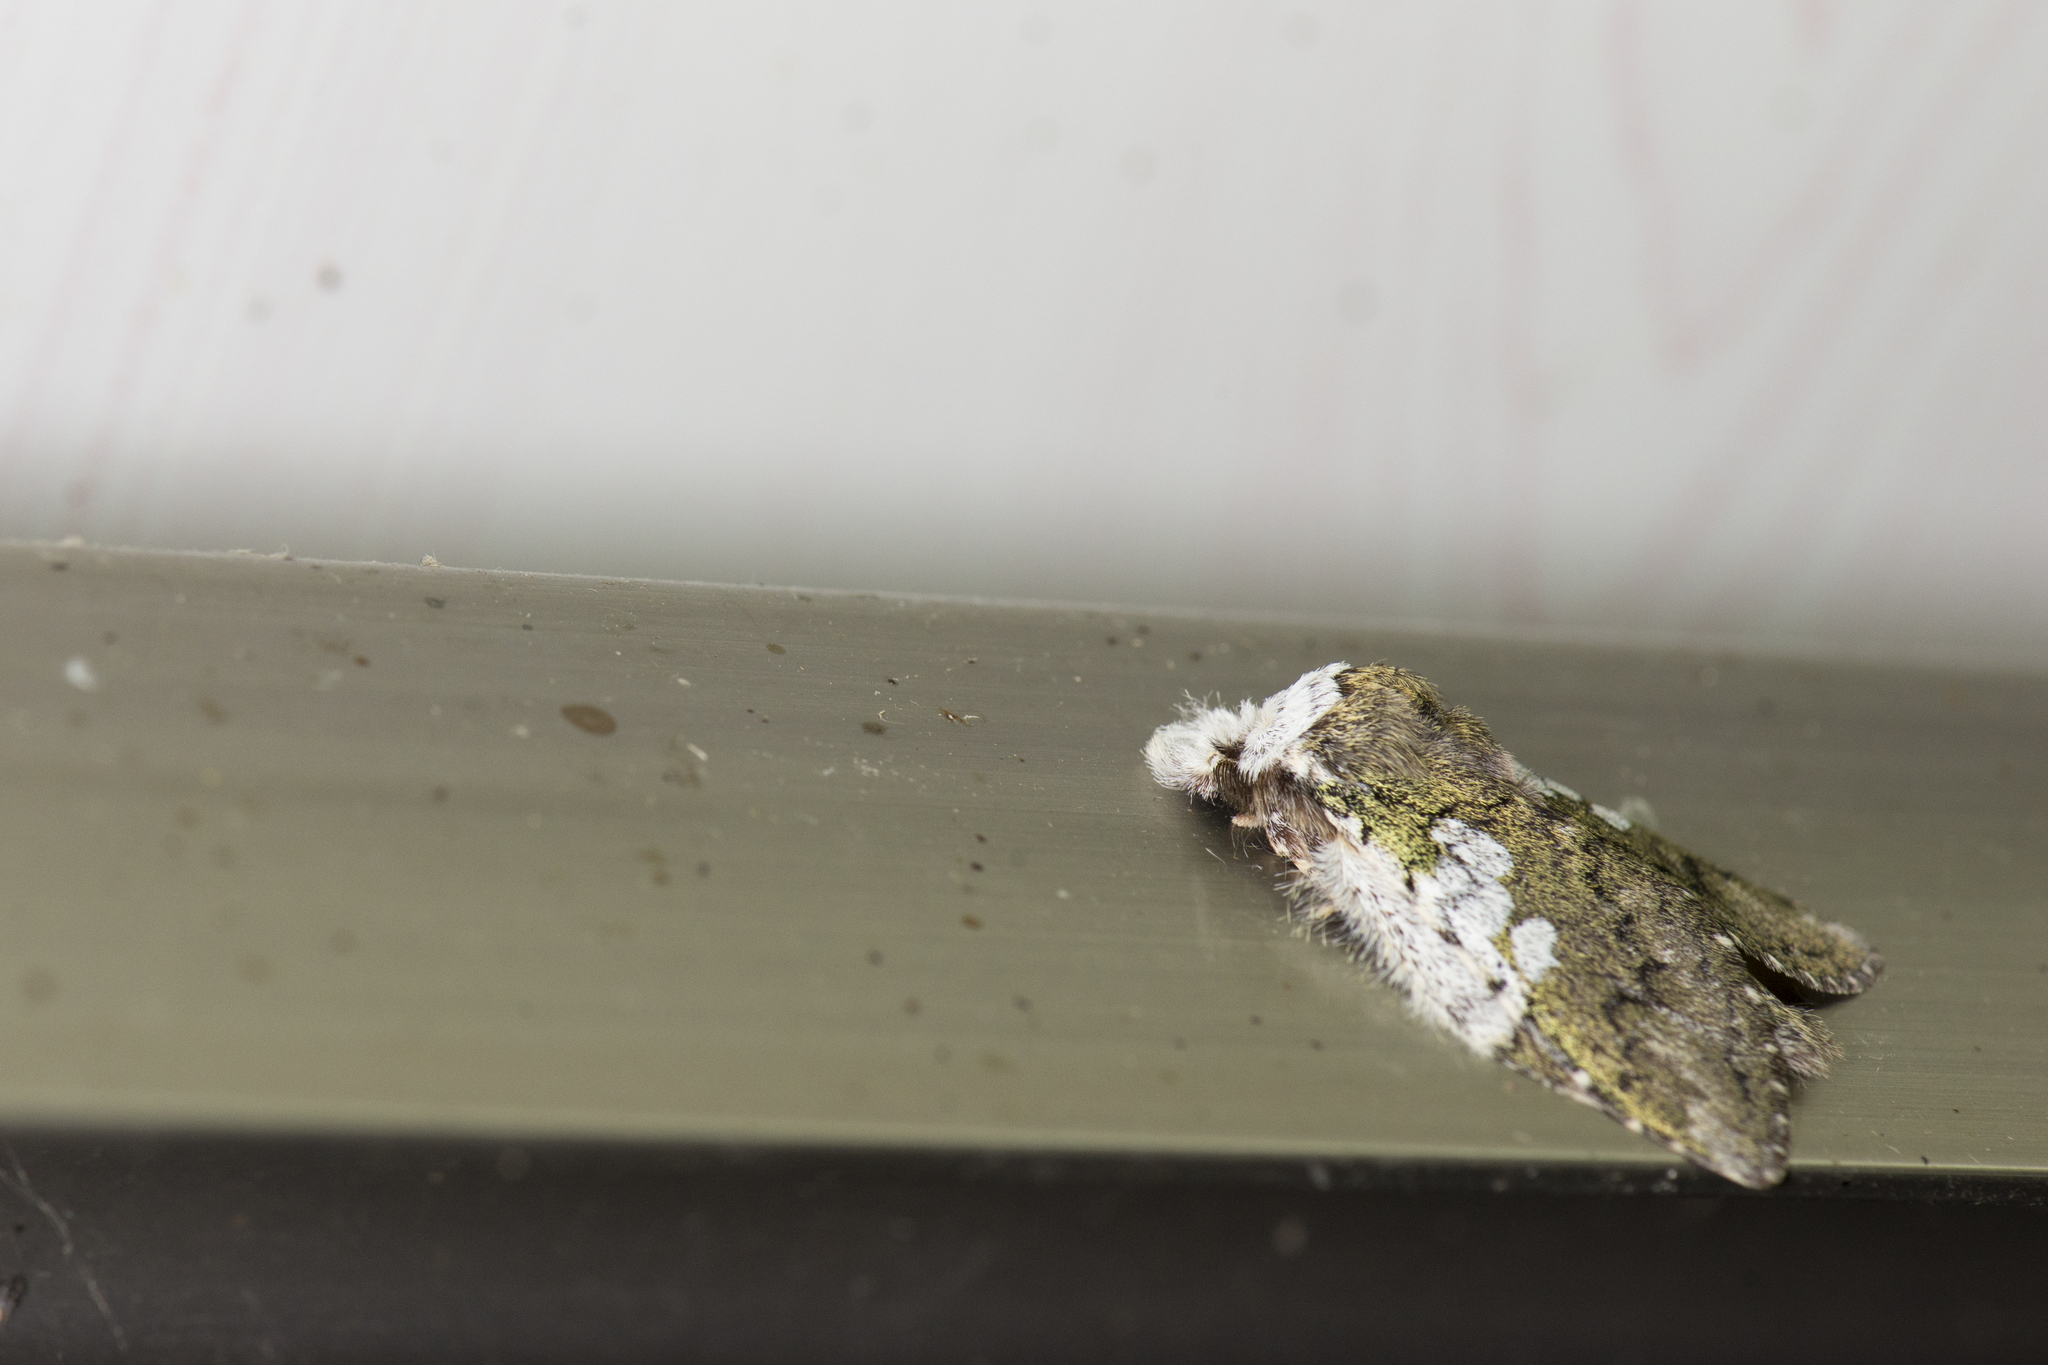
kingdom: Animalia
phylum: Arthropoda
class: Insecta
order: Lepidoptera
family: Notodontidae
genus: Syntypistis
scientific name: Syntypistis comatus
